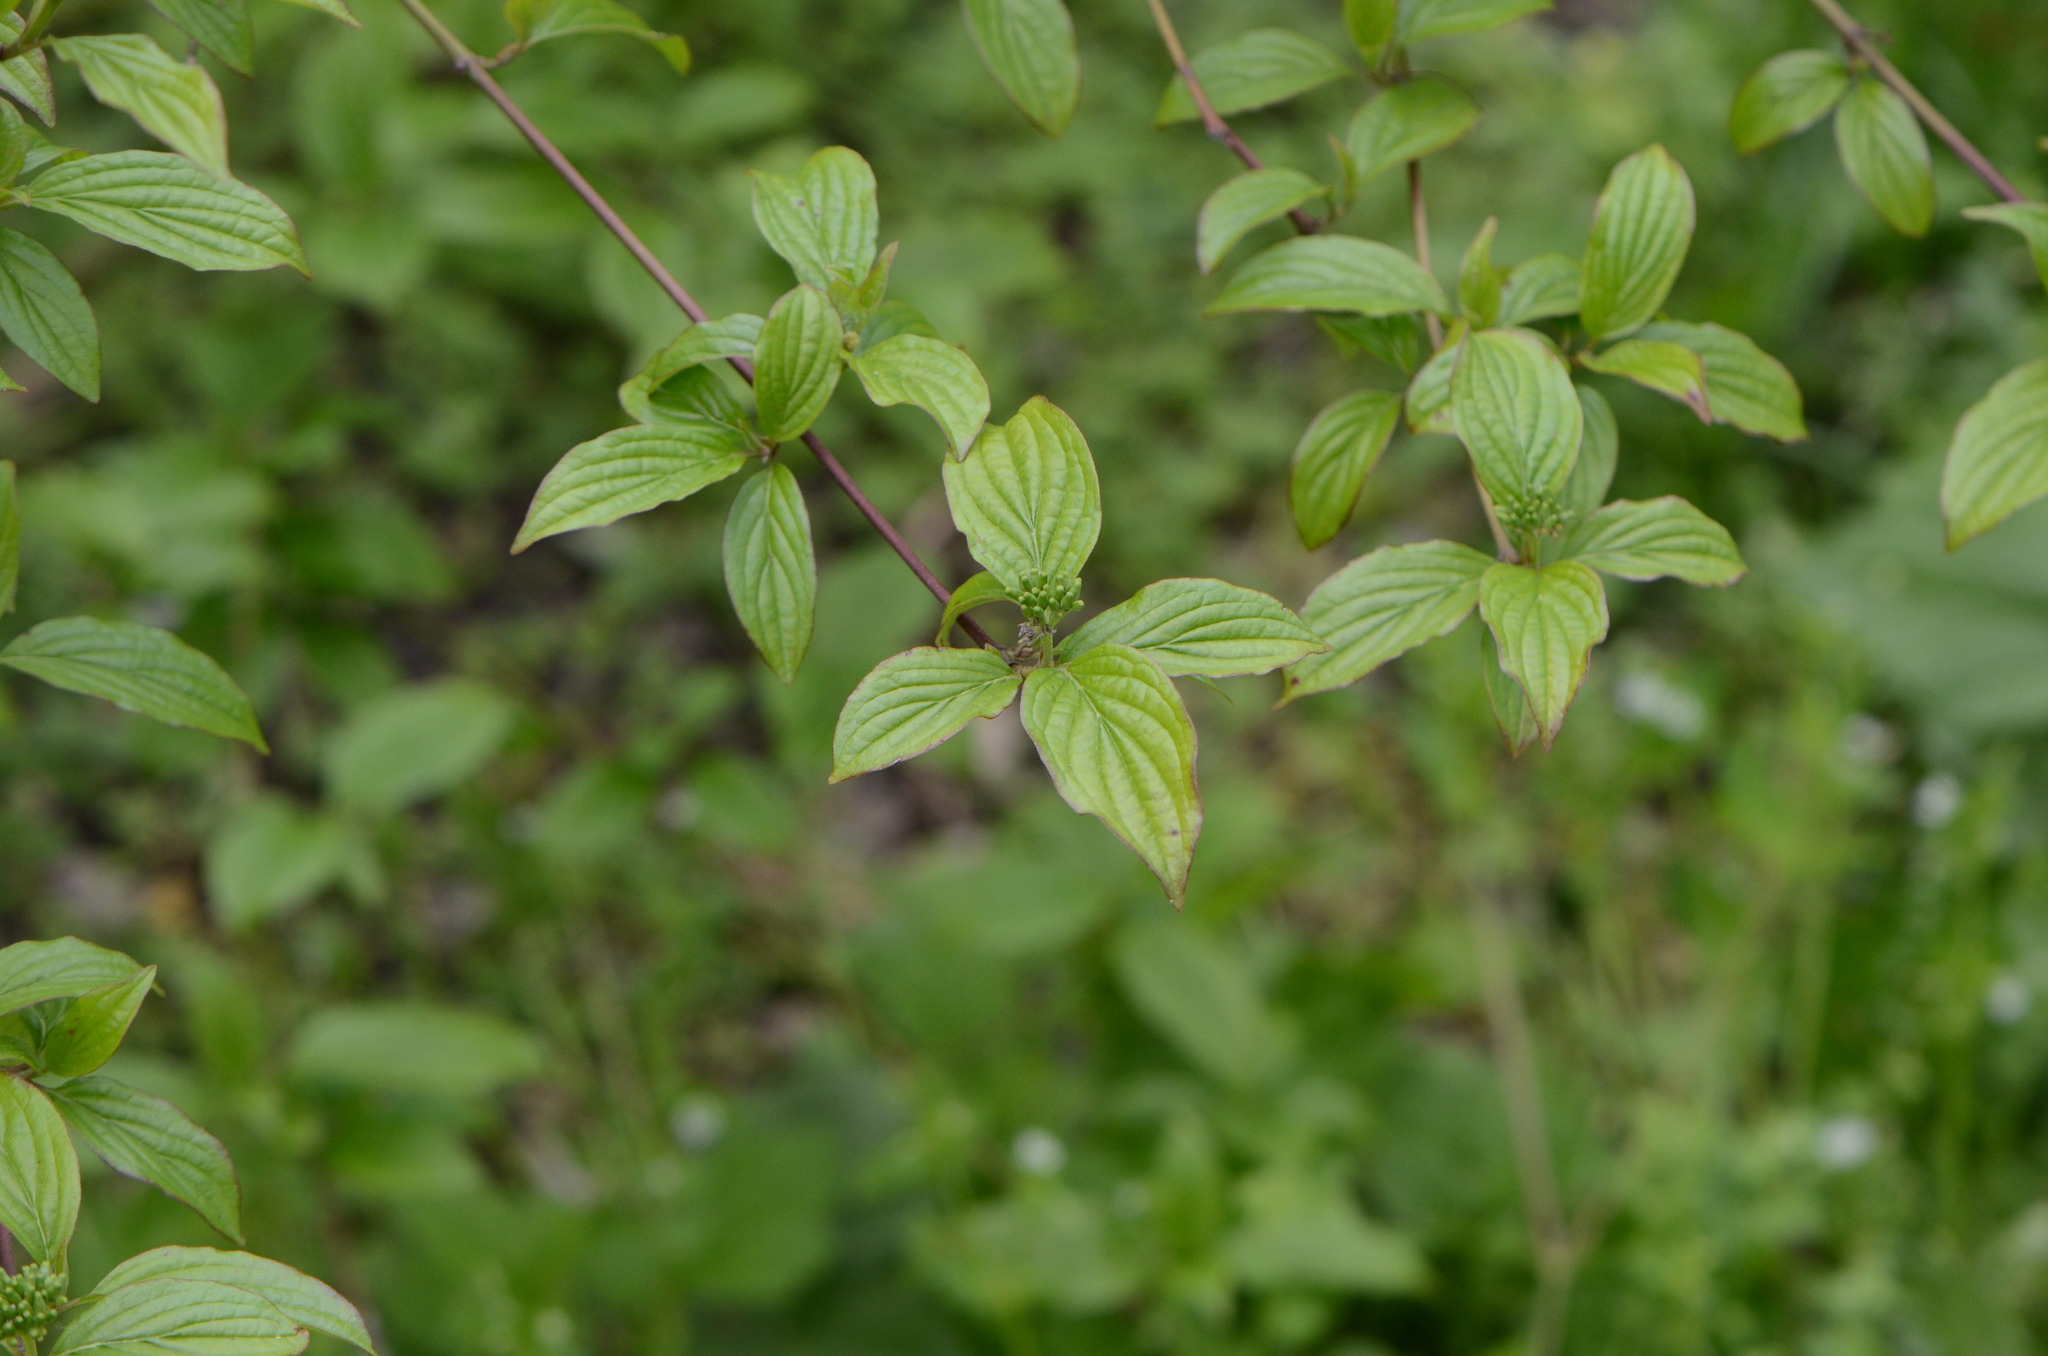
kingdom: Plantae
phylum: Tracheophyta
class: Magnoliopsida
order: Cornales
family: Cornaceae
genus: Cornus
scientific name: Cornus sanguinea
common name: Dogwood
